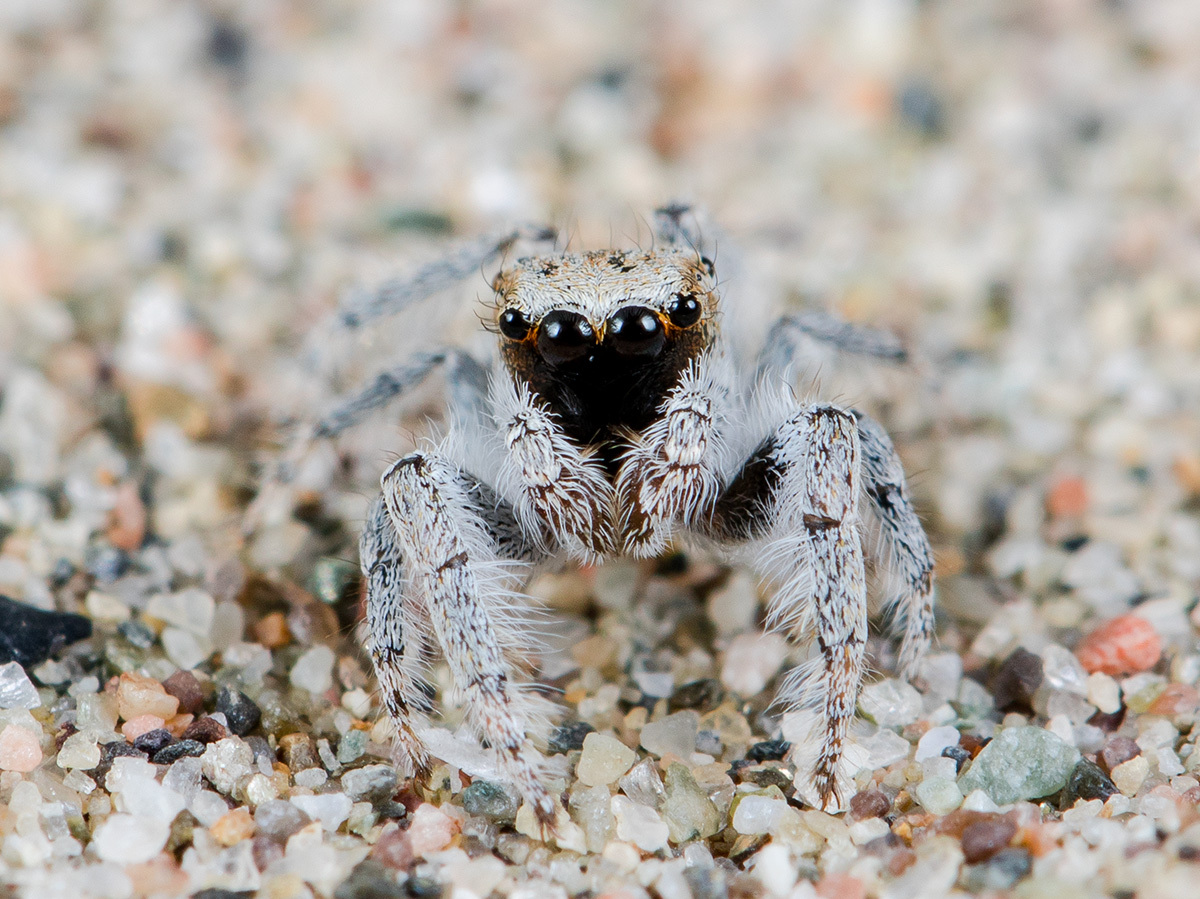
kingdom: Animalia
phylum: Arthropoda
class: Arachnida
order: Araneae
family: Salticidae
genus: Marusyllus
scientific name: Marusyllus aralicus
